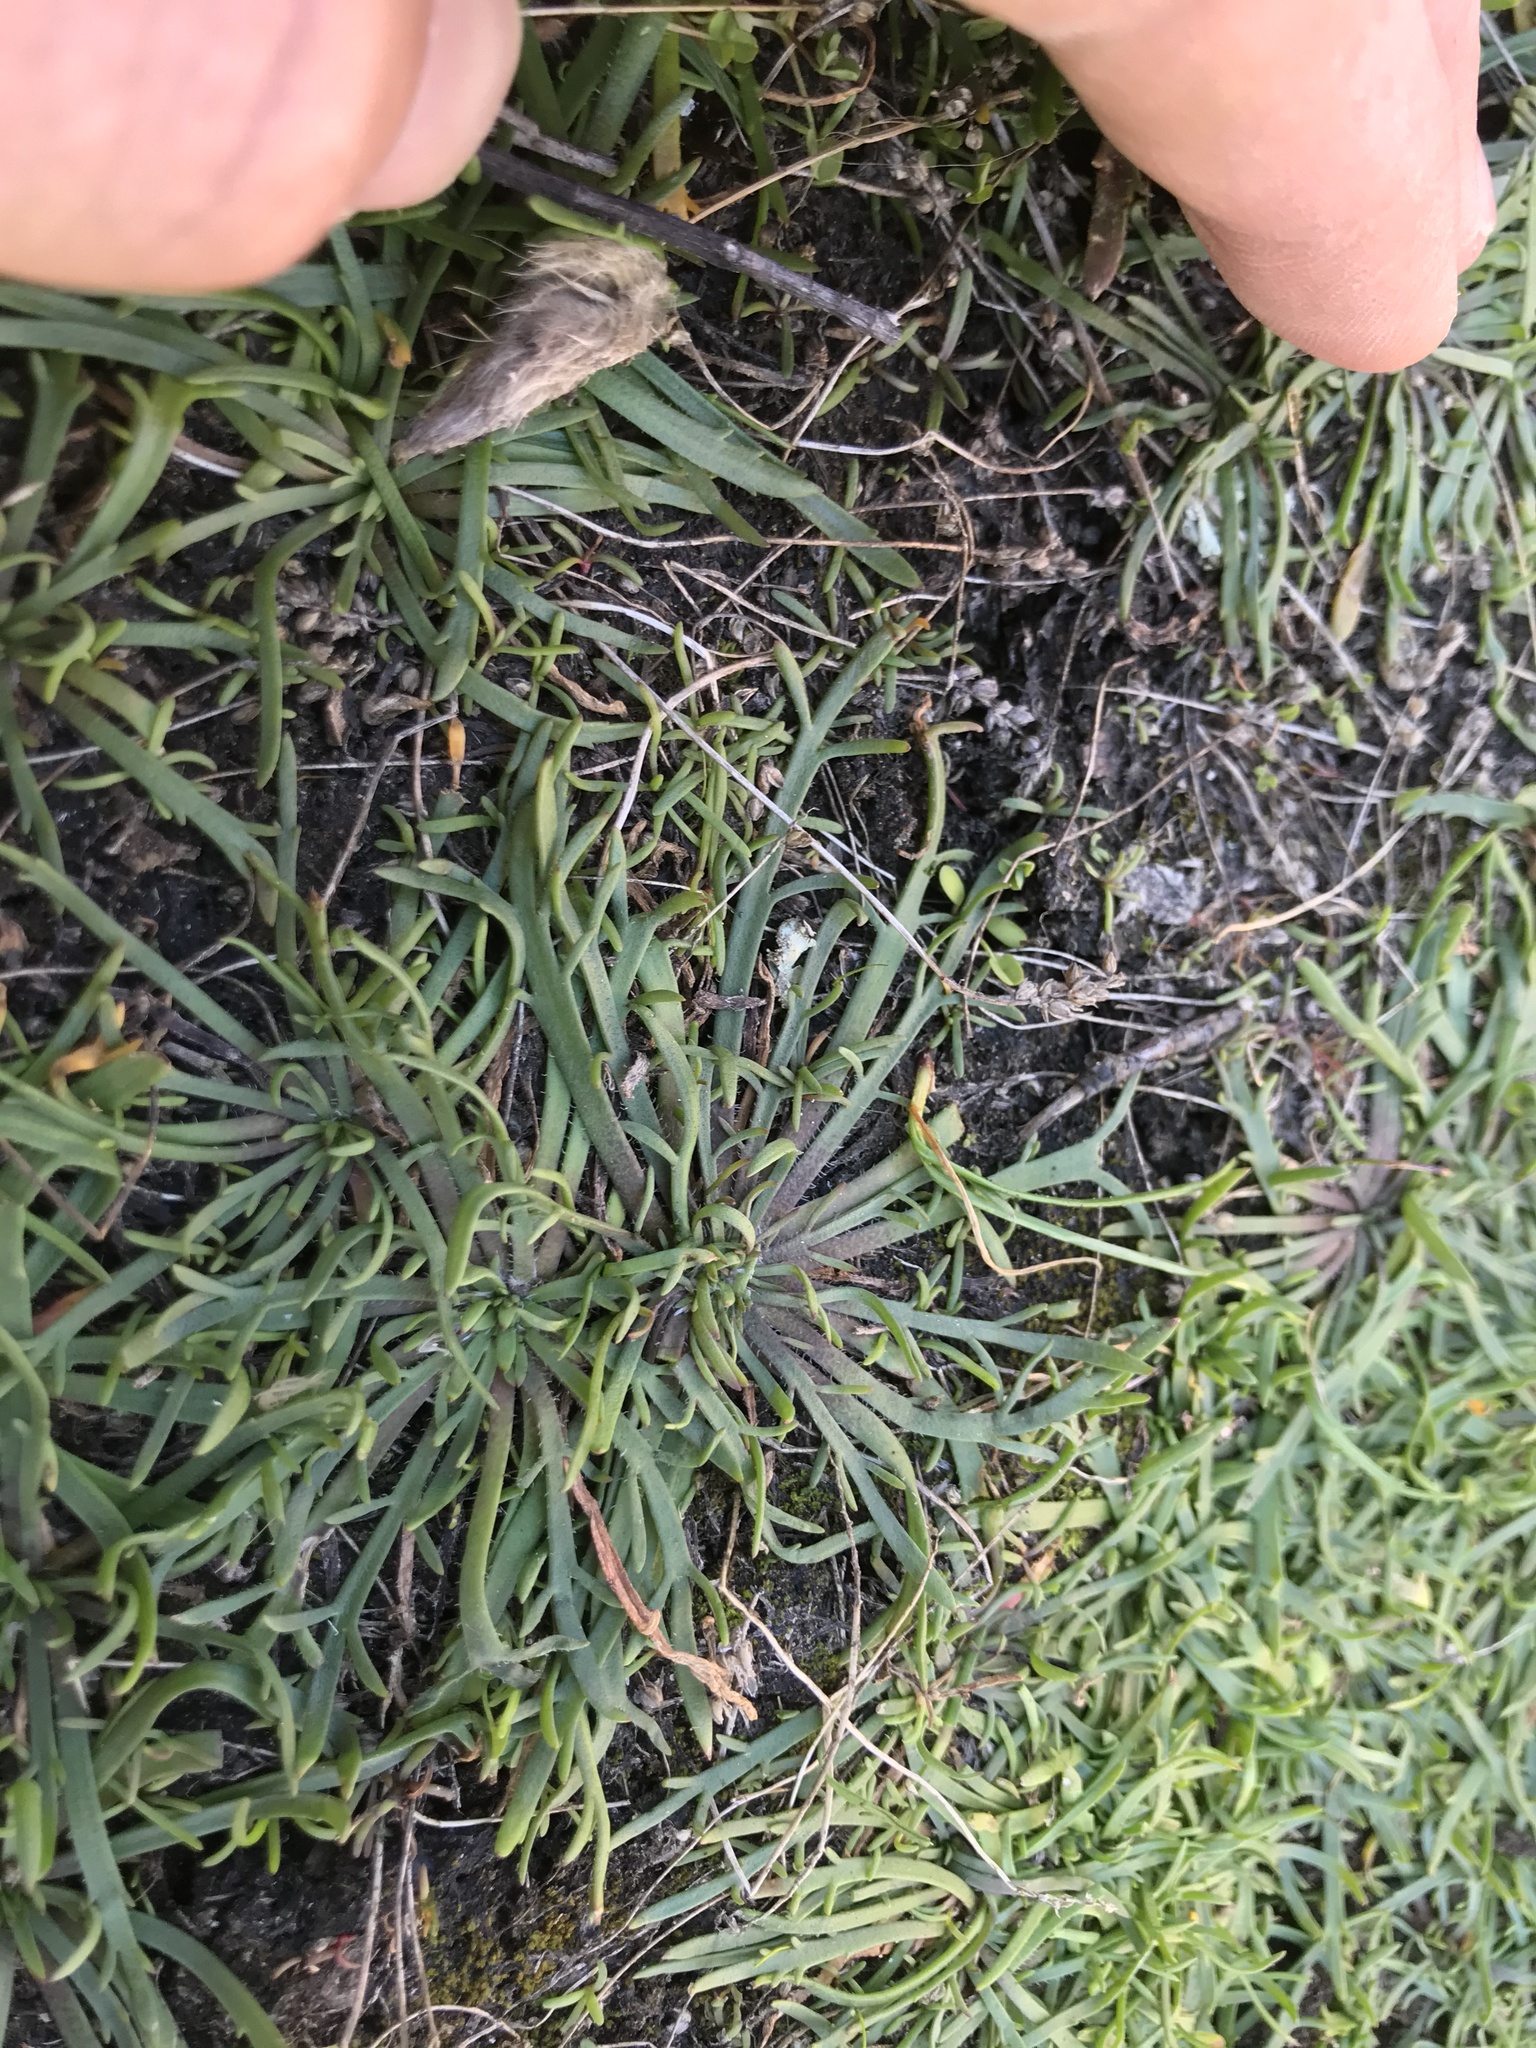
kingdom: Plantae
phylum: Tracheophyta
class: Magnoliopsida
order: Lamiales
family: Plantaginaceae
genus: Plantago
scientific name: Plantago coronopus
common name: Buck's-horn plantain
